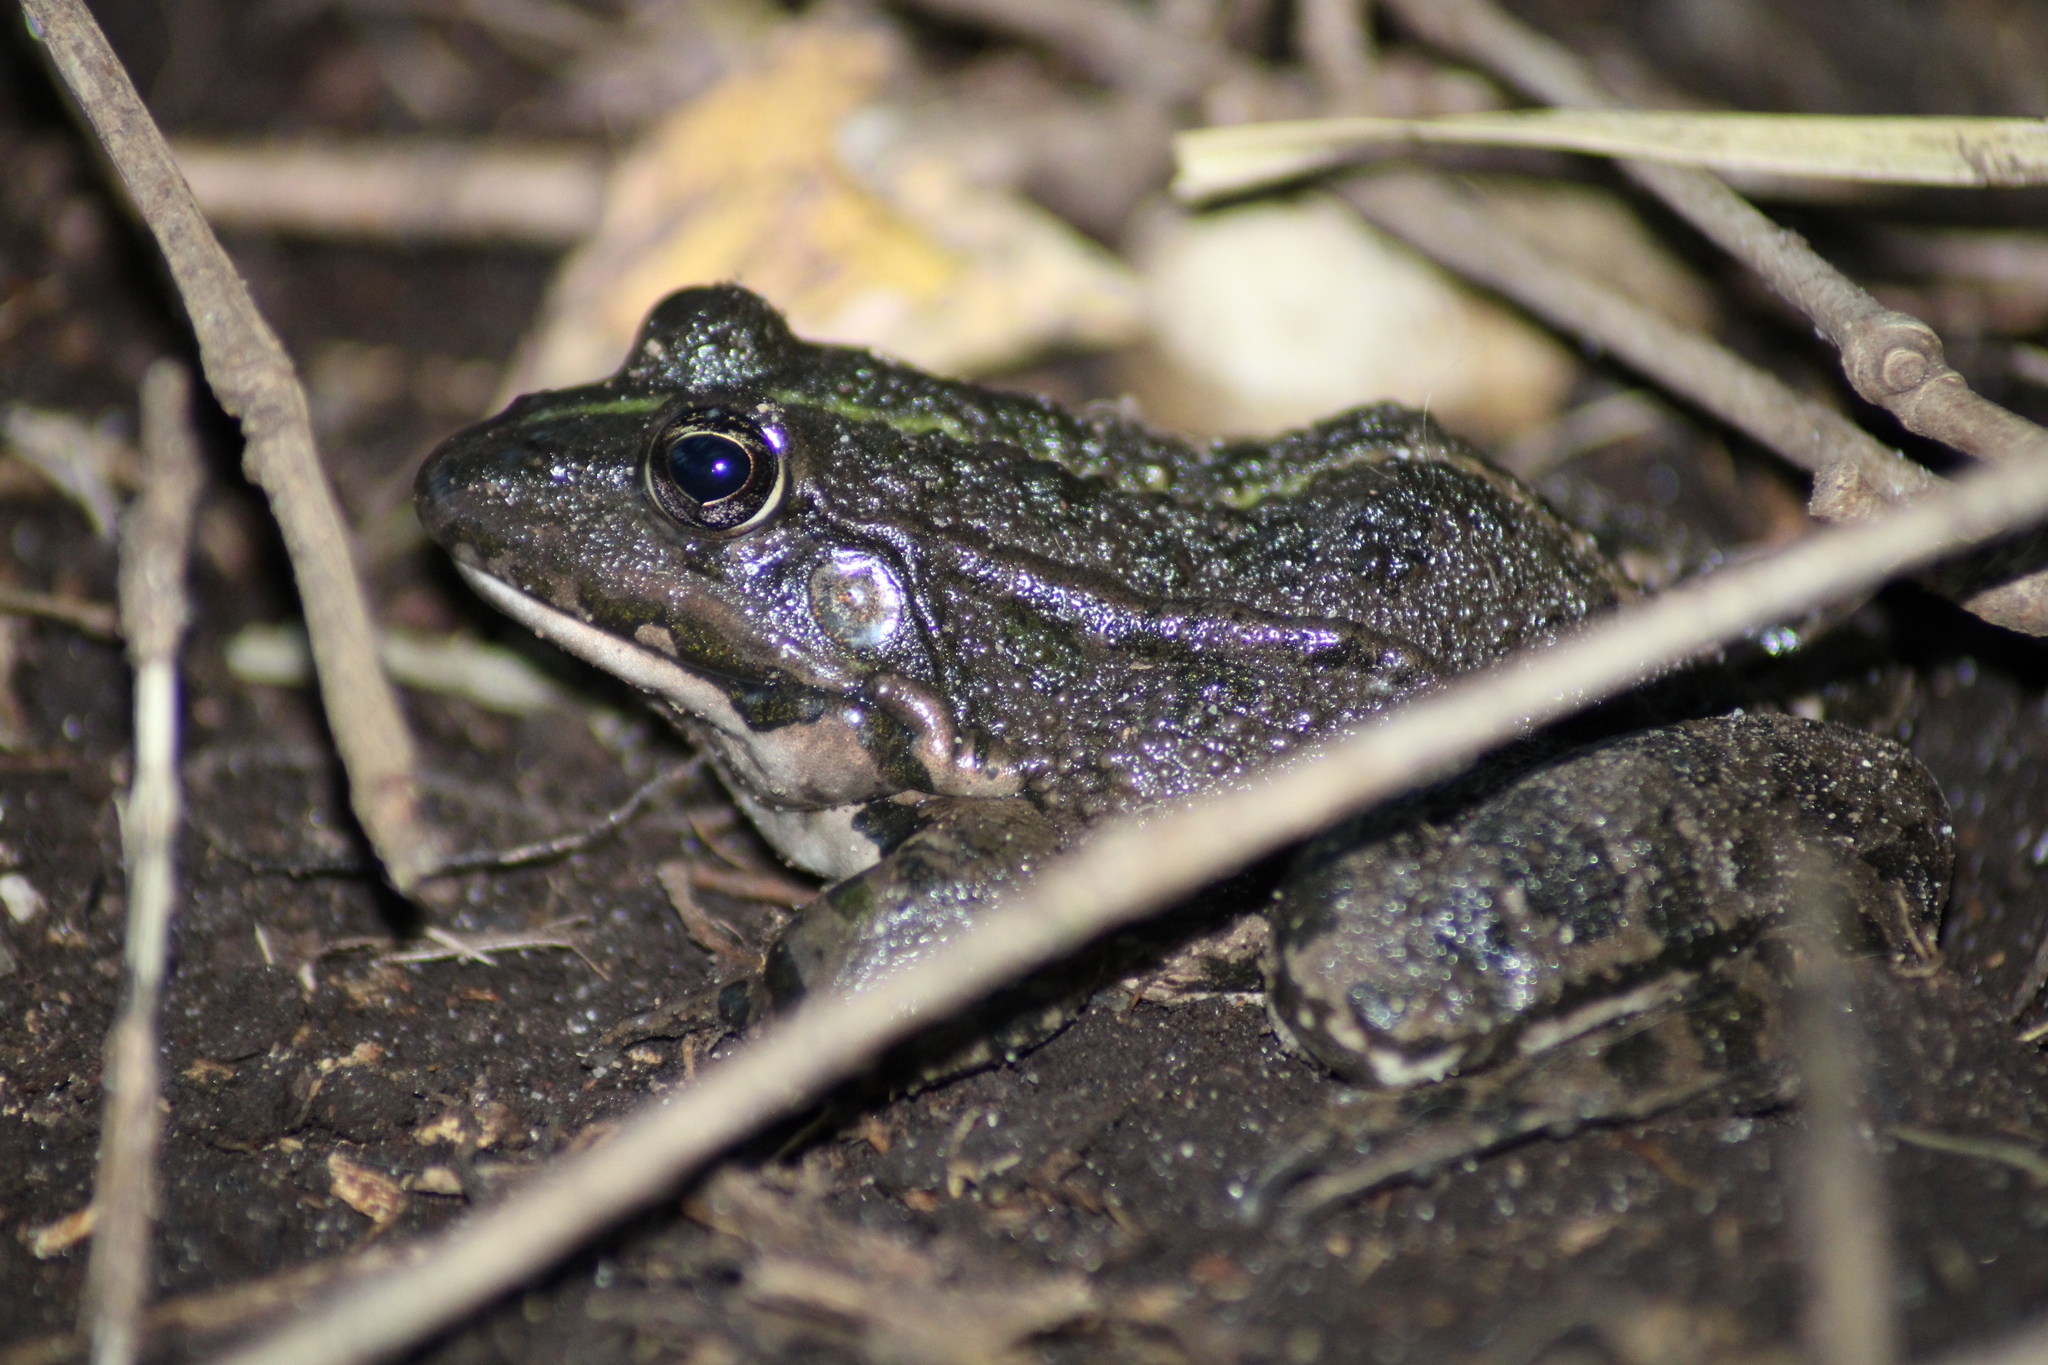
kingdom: Animalia
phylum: Chordata
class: Amphibia
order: Anura
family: Ranidae
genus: Pelophylax
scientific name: Pelophylax
